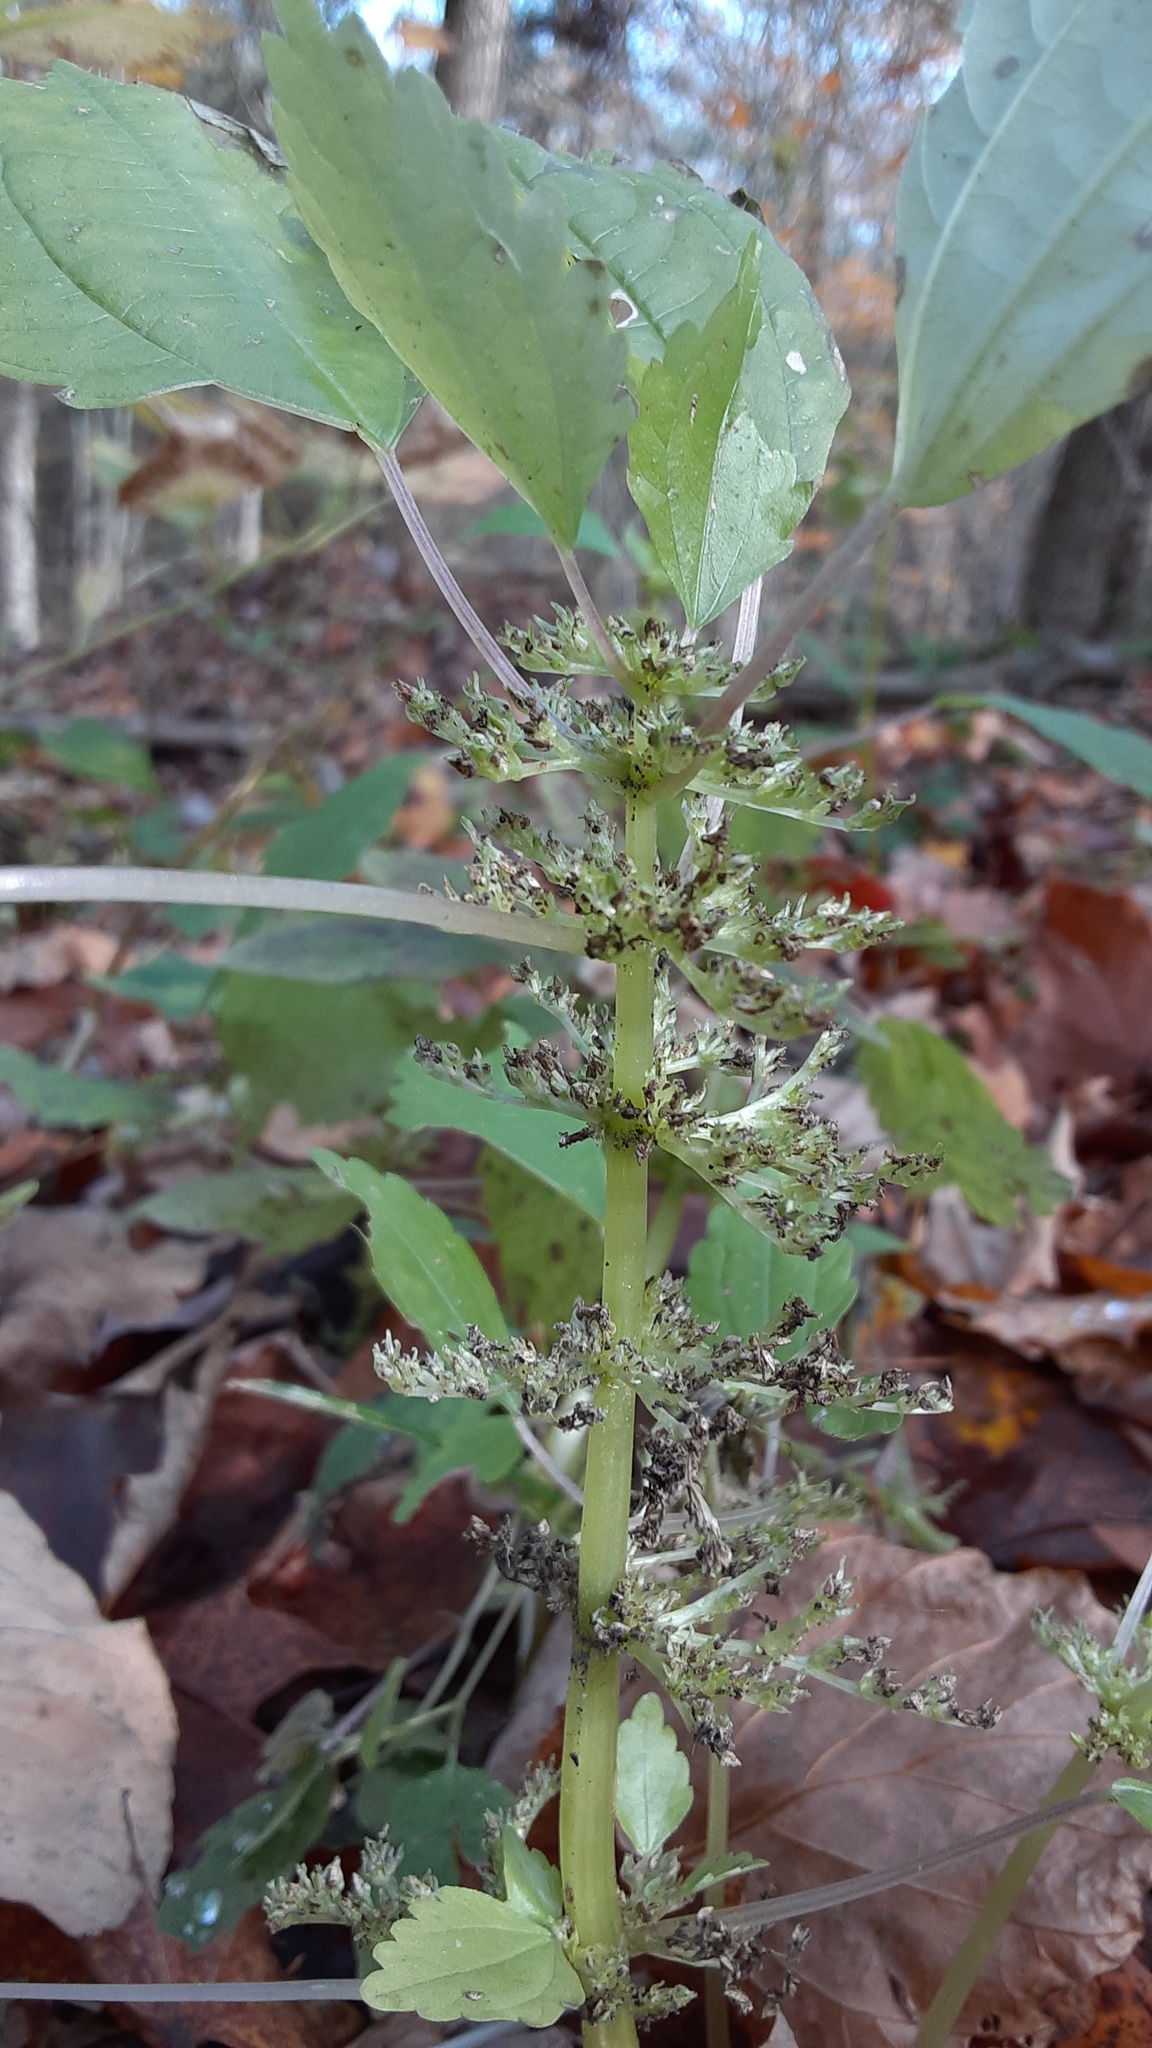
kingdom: Plantae
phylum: Tracheophyta
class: Magnoliopsida
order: Rosales
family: Urticaceae
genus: Pilea
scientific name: Pilea pumila
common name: Clearweed
